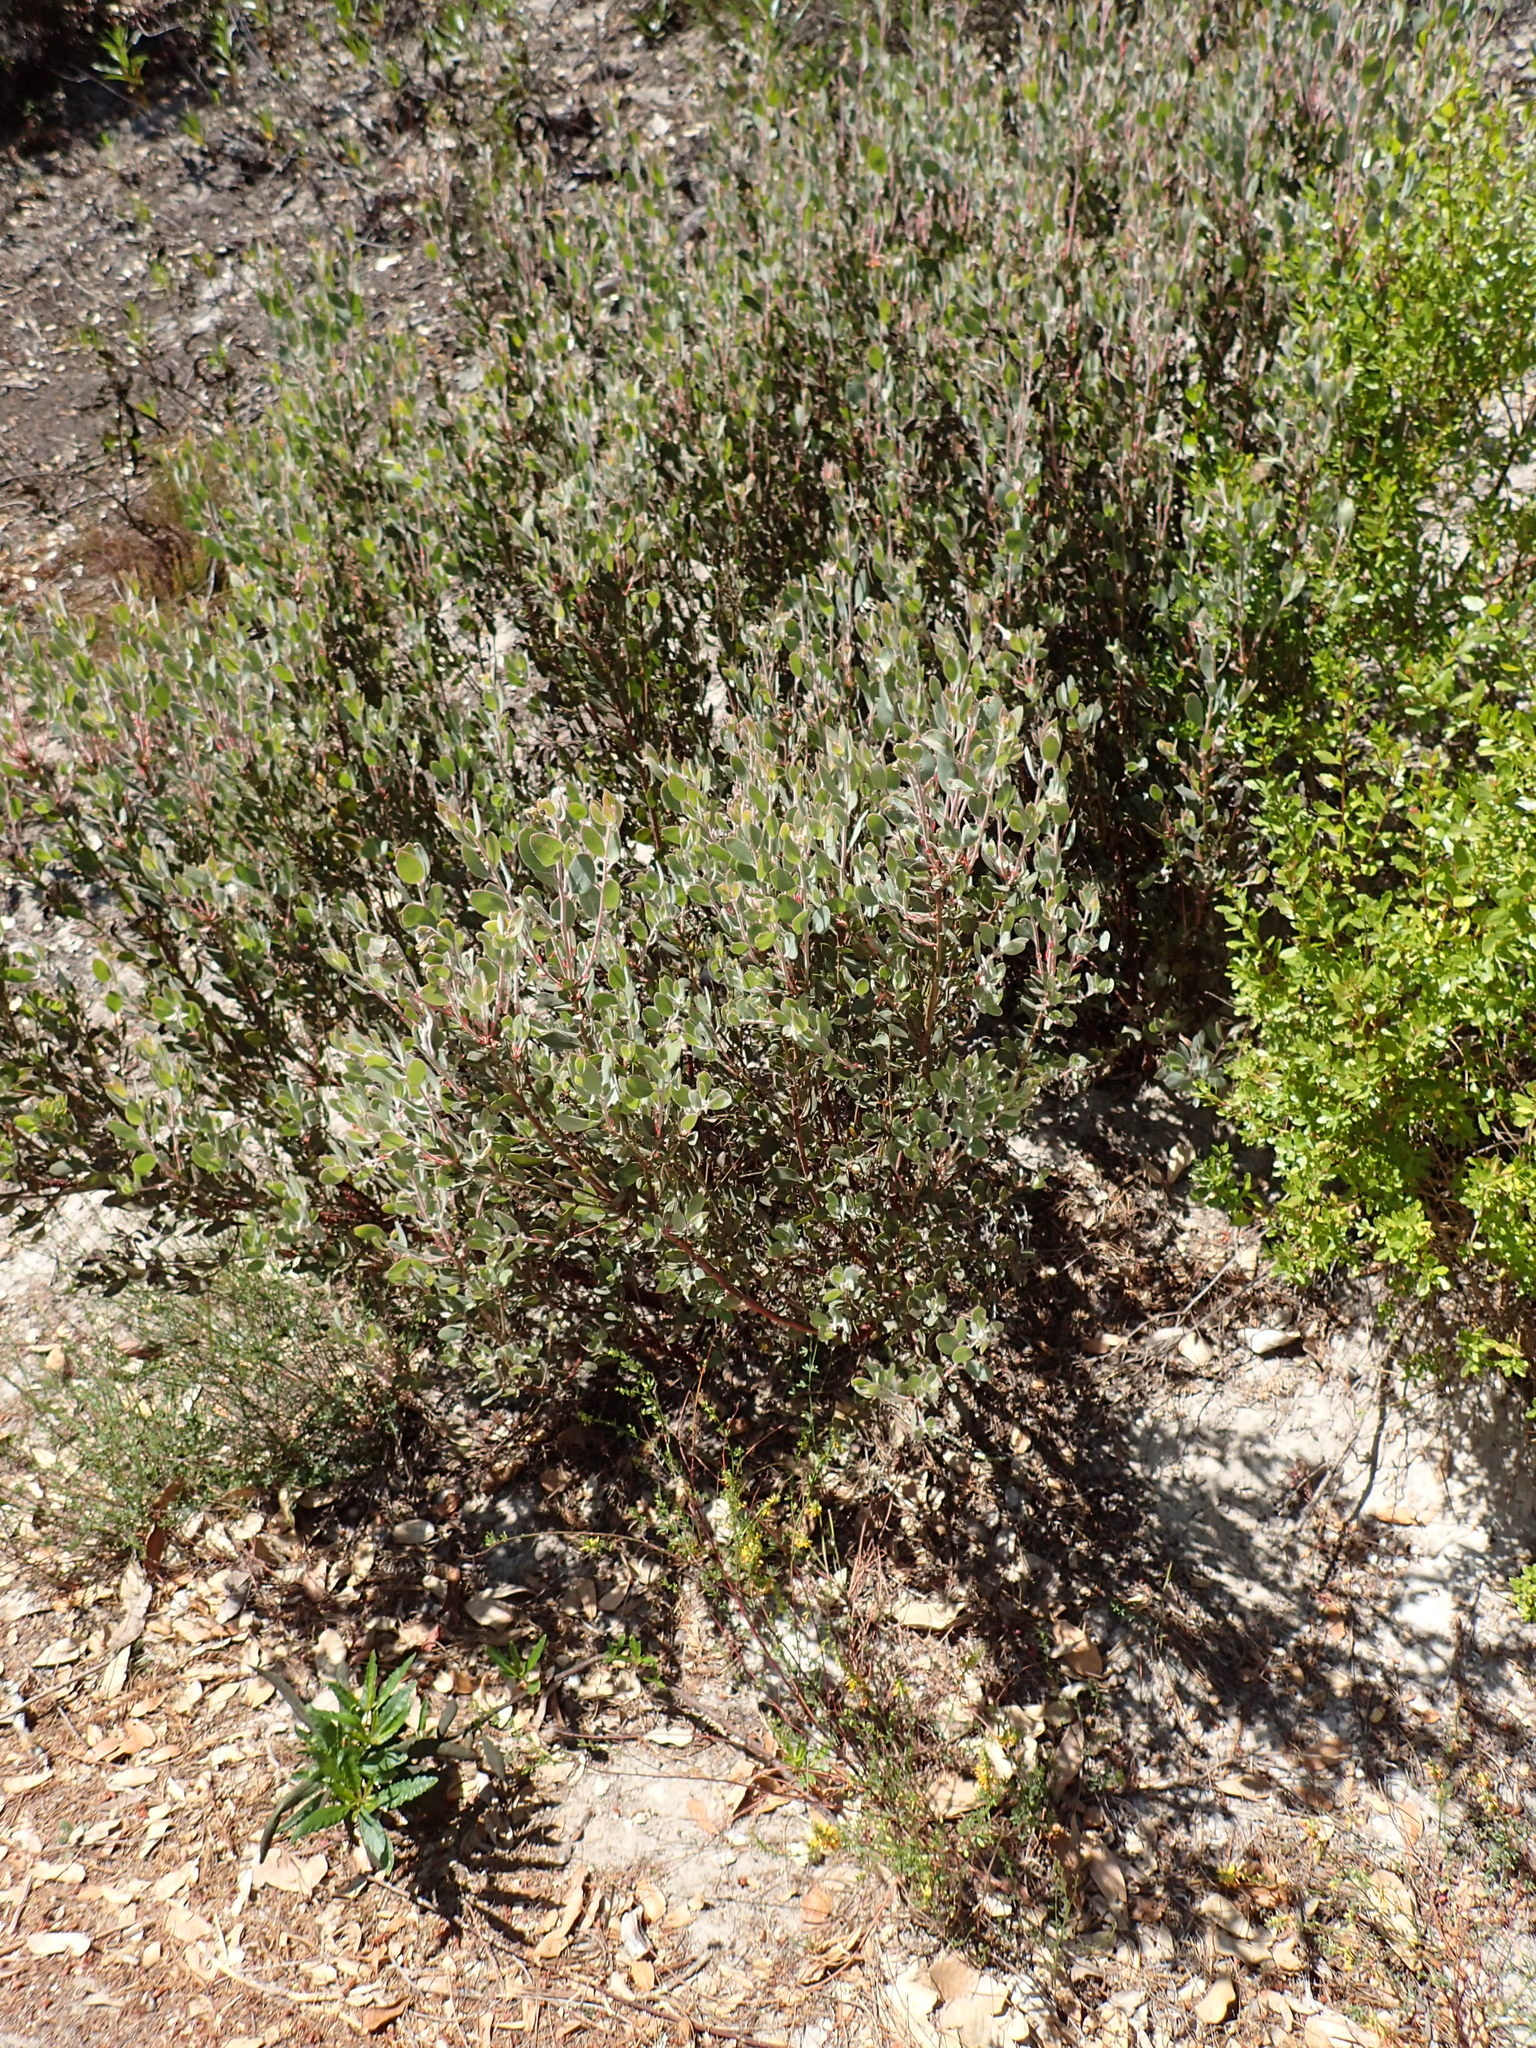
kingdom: Plantae
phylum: Tracheophyta
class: Magnoliopsida
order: Ericales
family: Ericaceae
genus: Arctostaphylos
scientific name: Arctostaphylos silvicola
